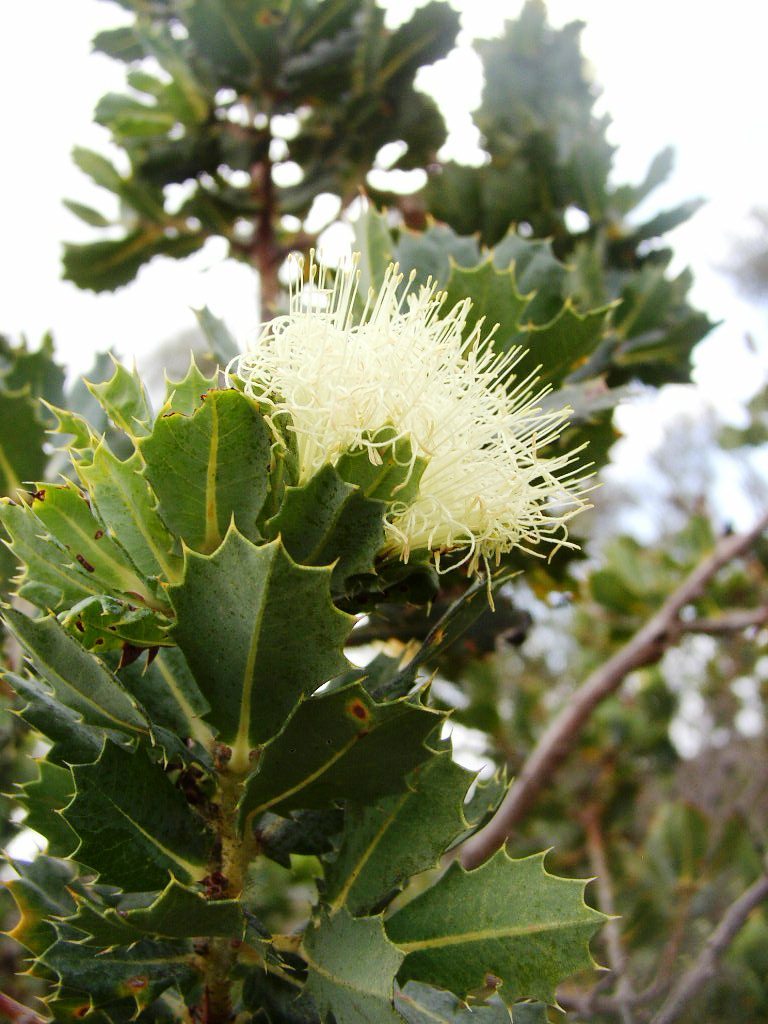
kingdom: Plantae
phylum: Tracheophyta
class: Magnoliopsida
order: Proteales
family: Proteaceae
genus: Banksia
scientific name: Banksia obovata
